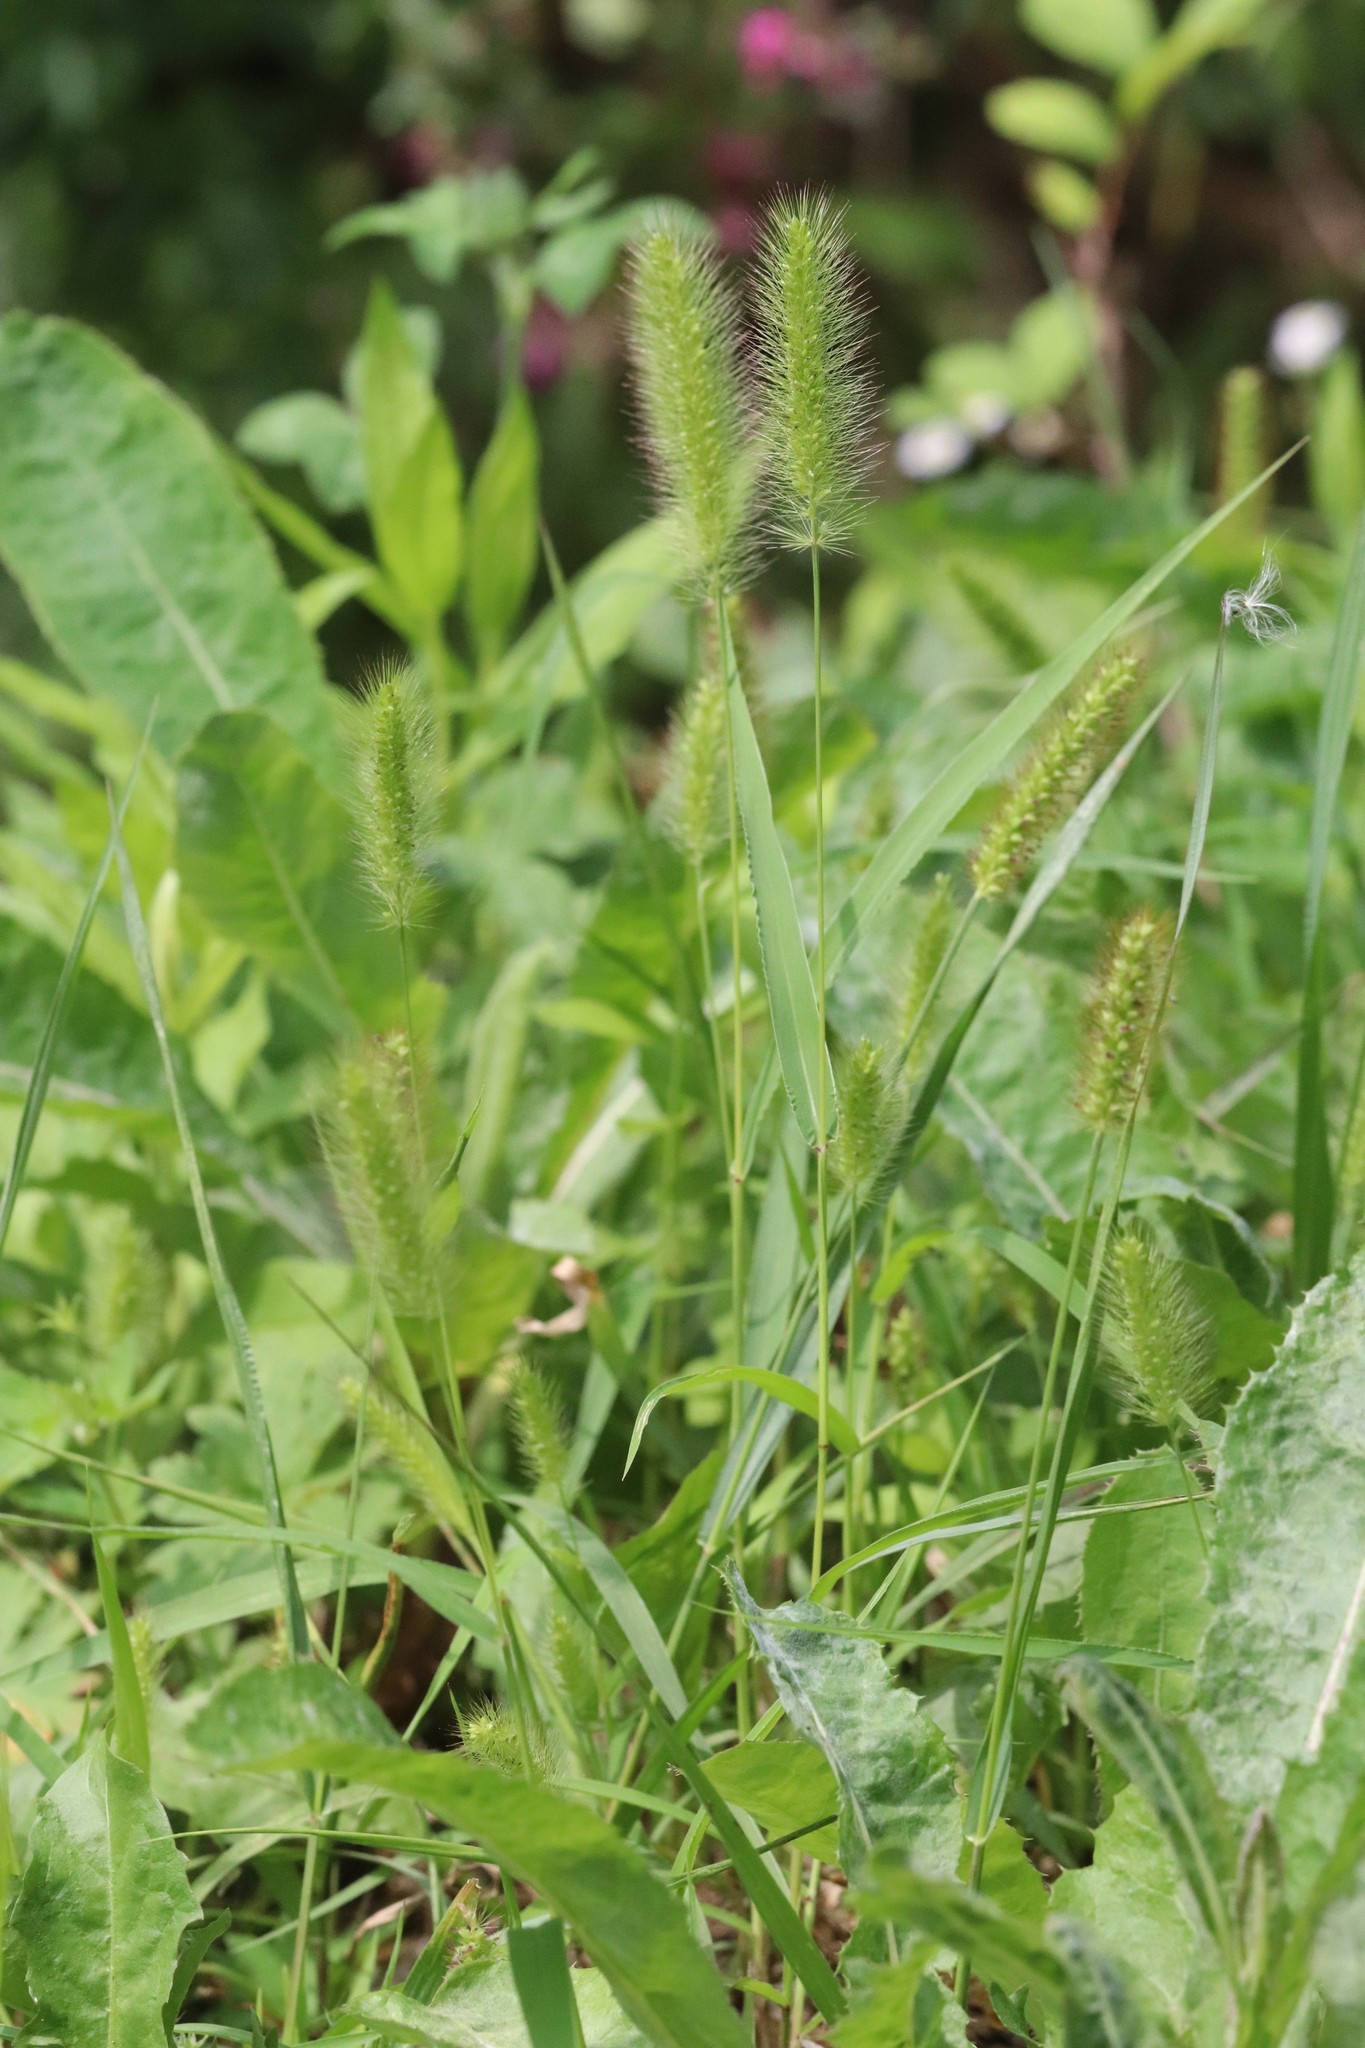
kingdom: Plantae
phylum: Tracheophyta
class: Liliopsida
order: Poales
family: Poaceae
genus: Setaria
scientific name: Setaria viridis
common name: Green bristlegrass
